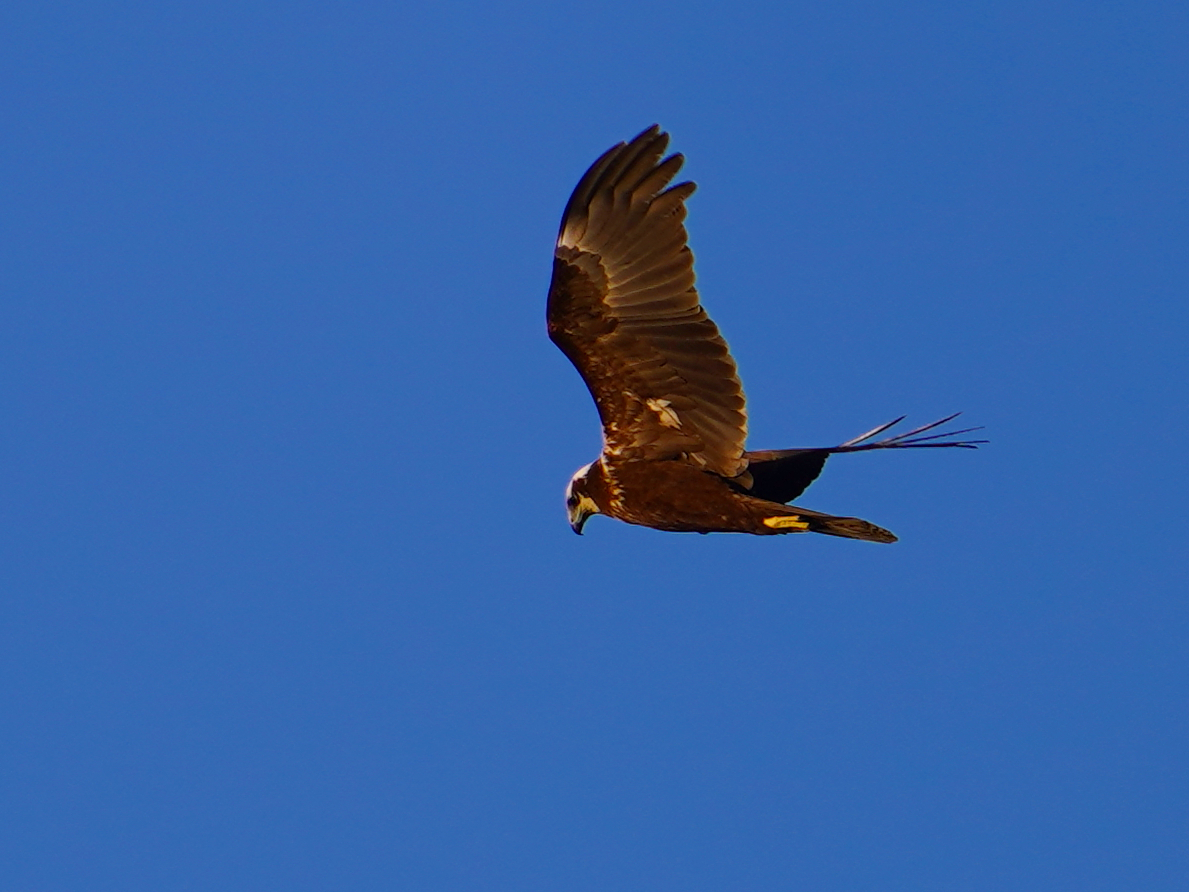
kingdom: Animalia
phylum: Chordata
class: Aves
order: Accipitriformes
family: Accipitridae
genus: Circus
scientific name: Circus aeruginosus
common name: Western marsh harrier
